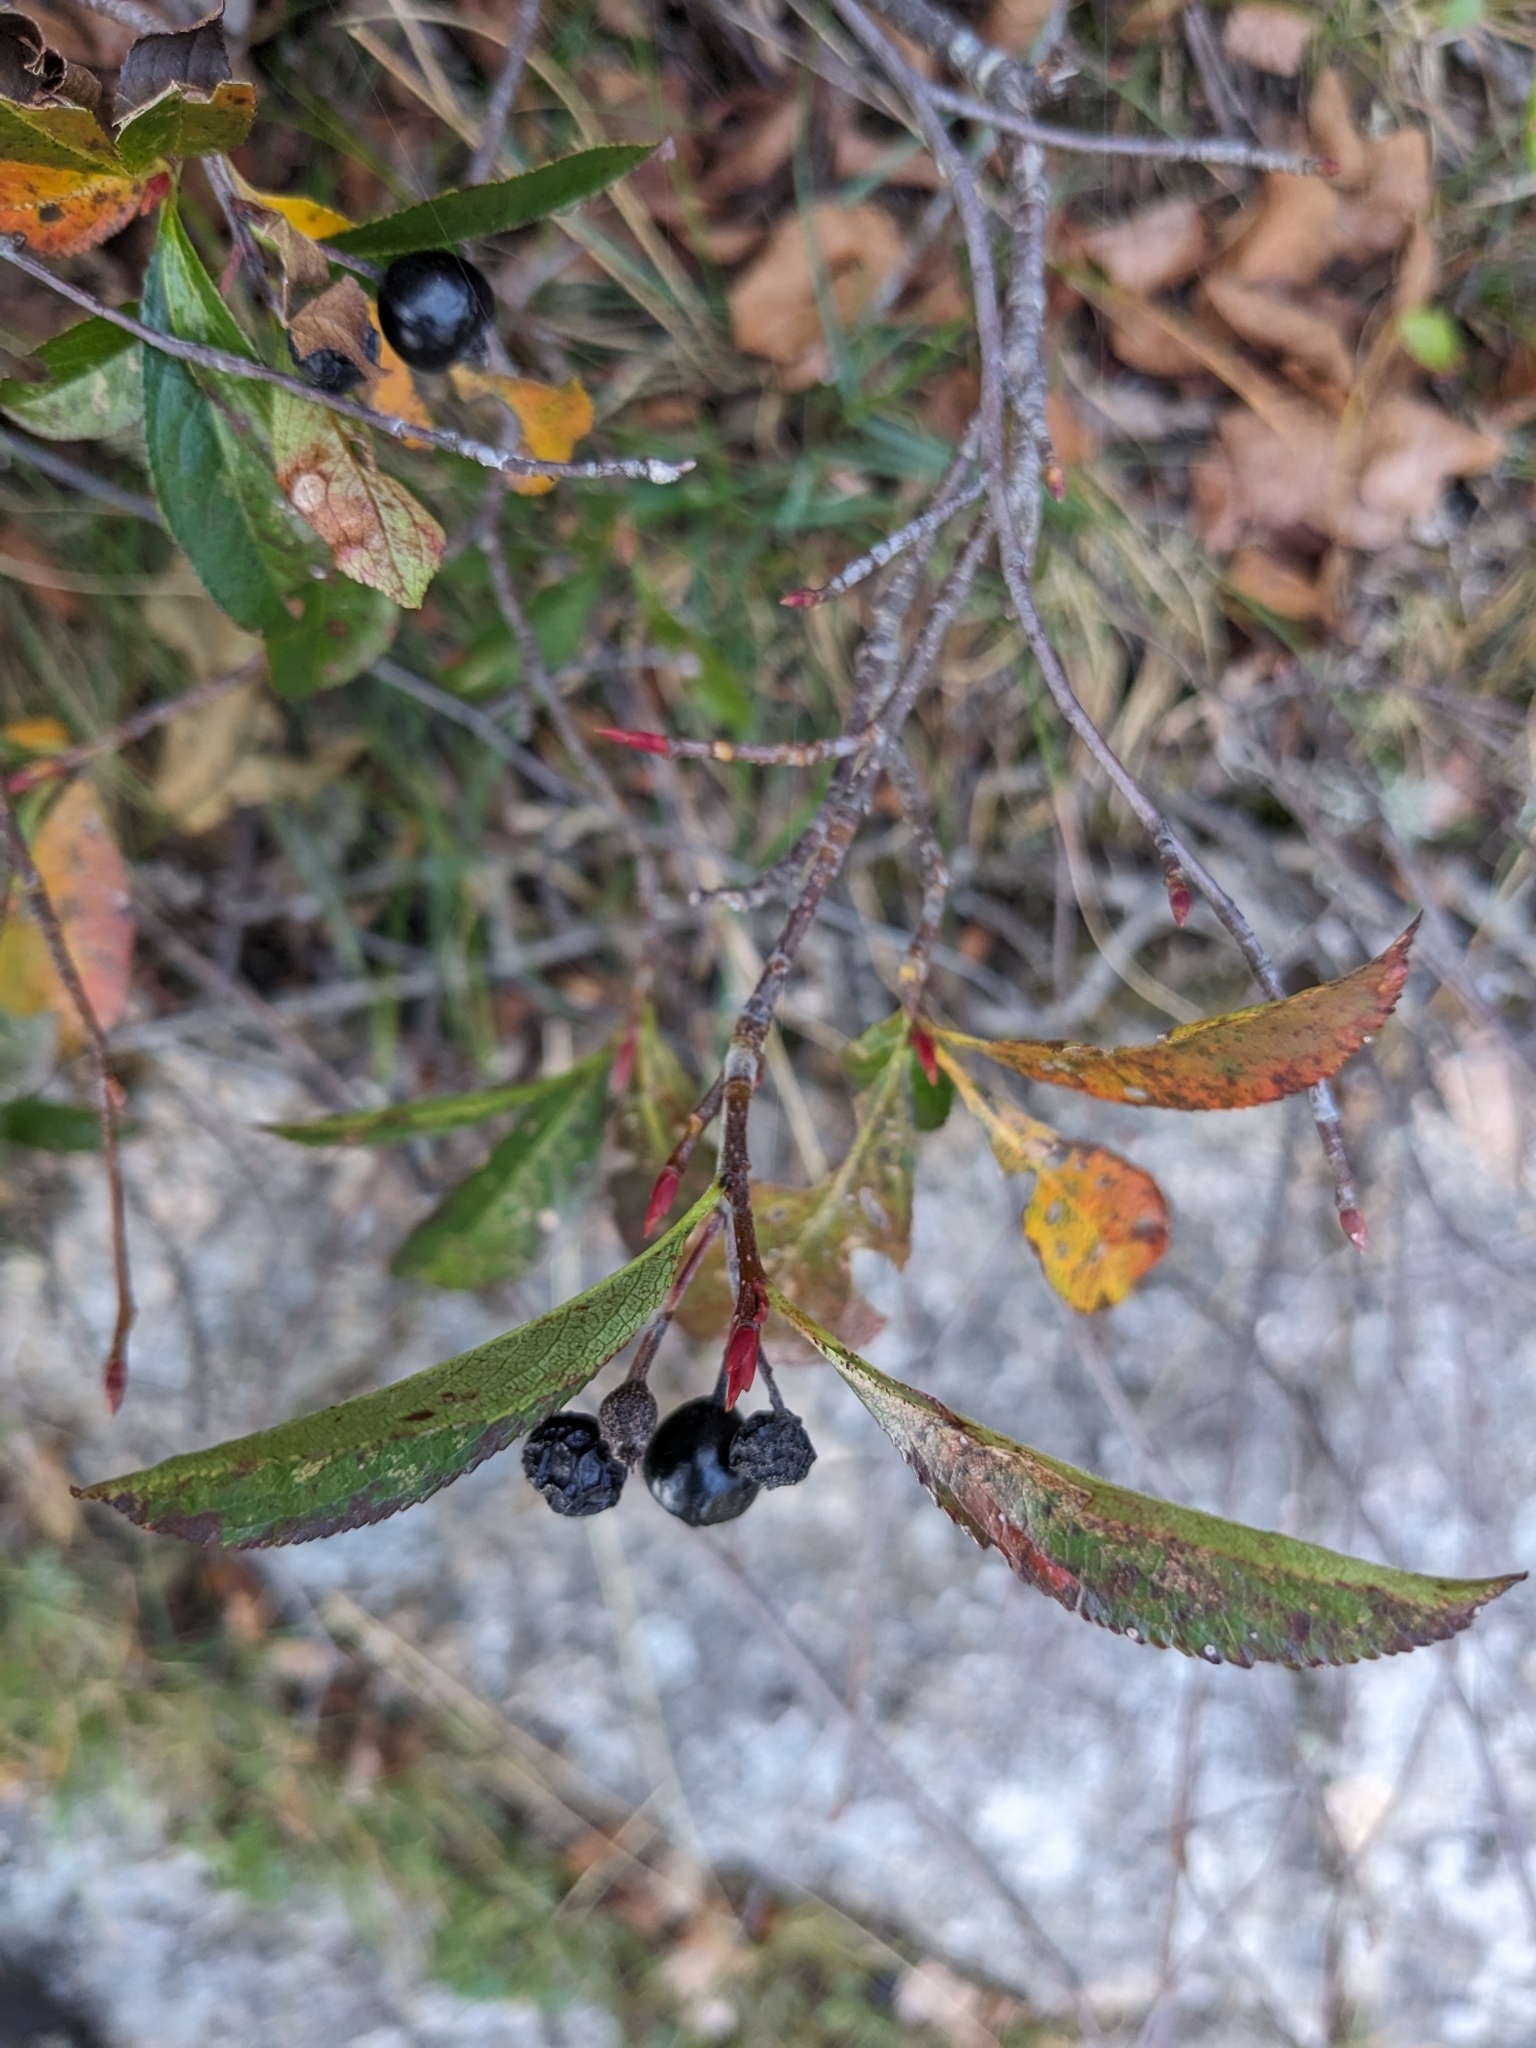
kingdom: Plantae
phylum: Tracheophyta
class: Magnoliopsida
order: Rosales
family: Rosaceae
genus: Aronia
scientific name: Aronia melanocarpa
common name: Black chokeberry
